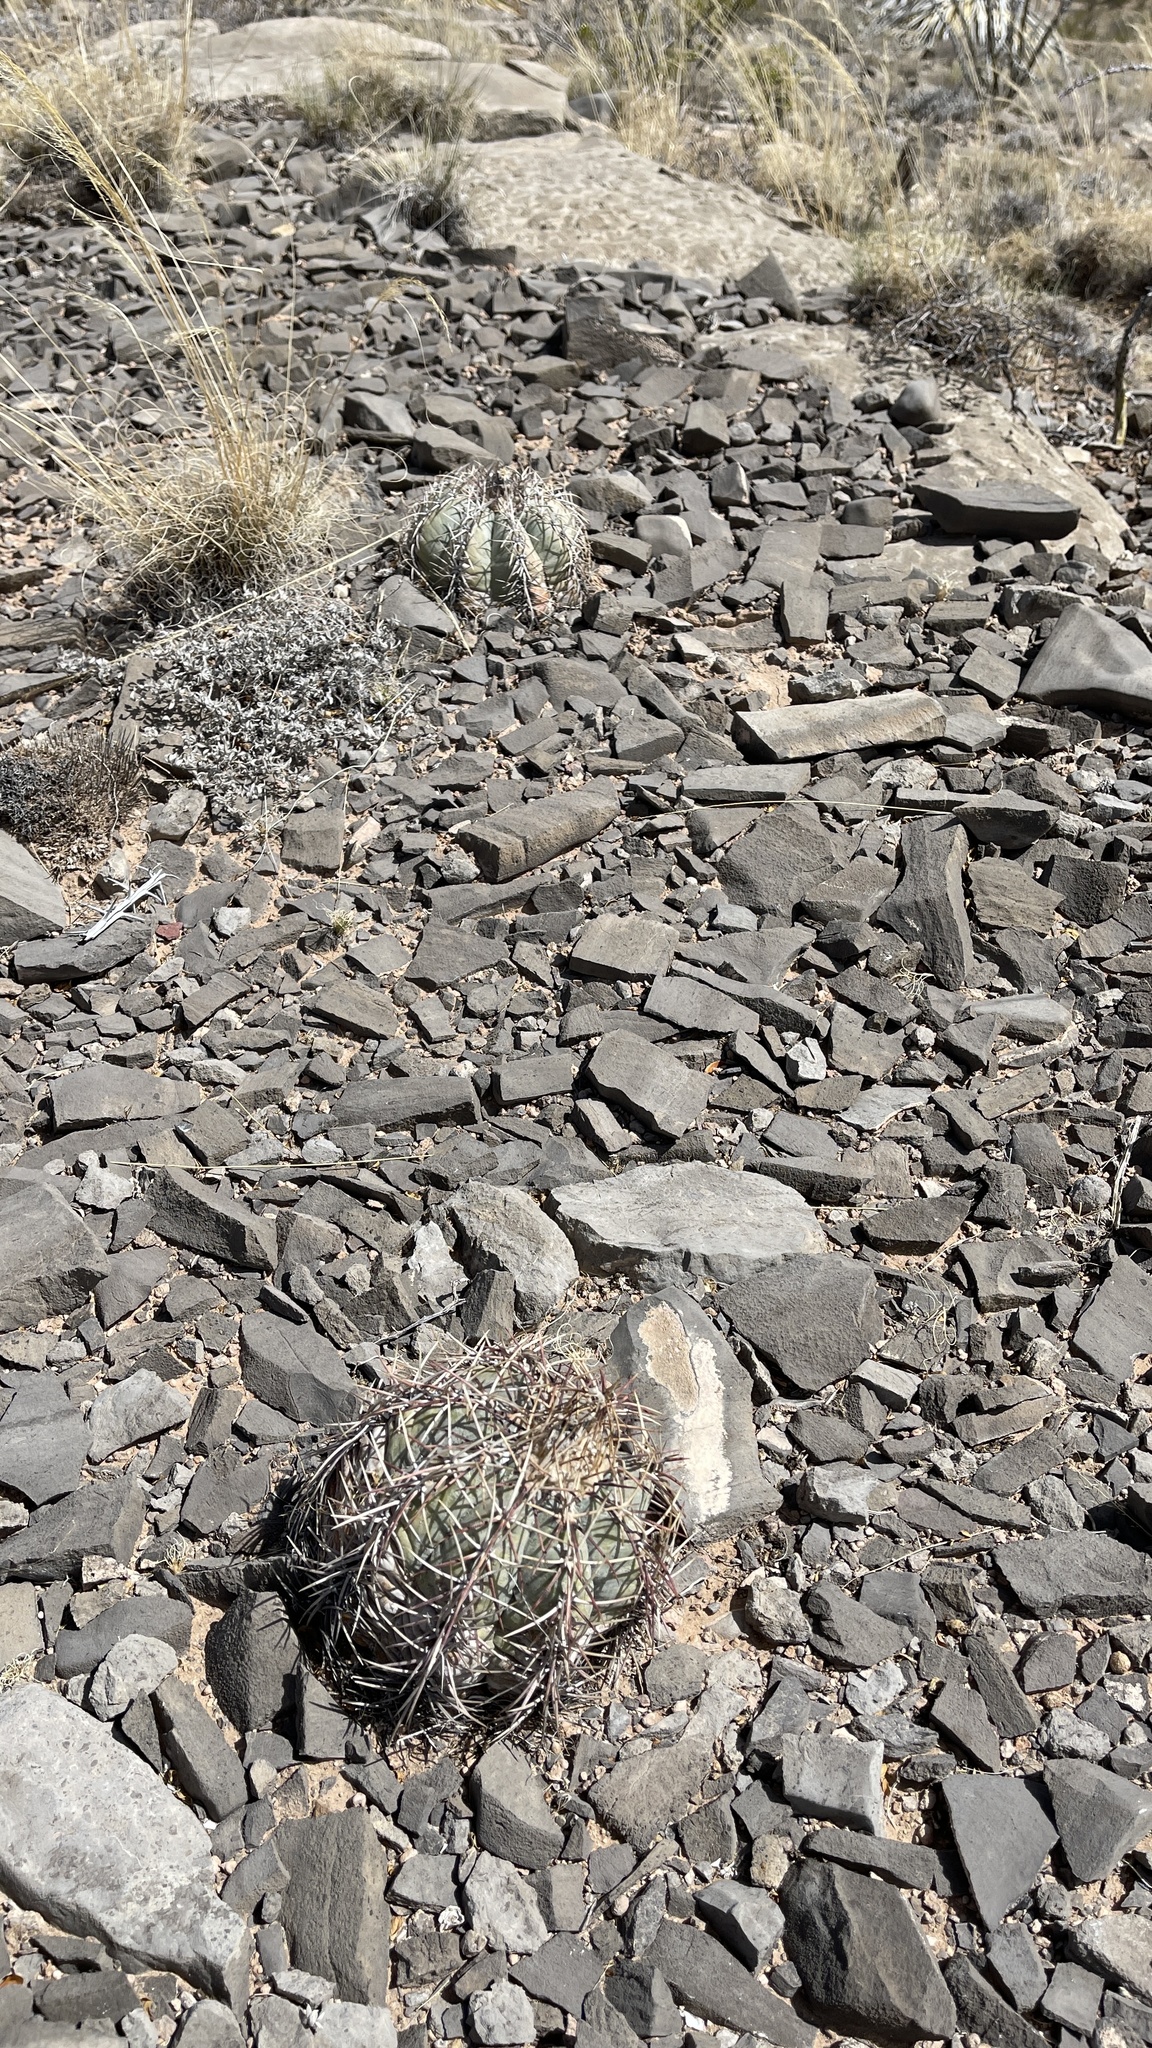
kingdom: Plantae
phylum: Tracheophyta
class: Magnoliopsida
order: Caryophyllales
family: Cactaceae
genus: Echinocactus
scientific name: Echinocactus horizonthalonius
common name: Devilshead
